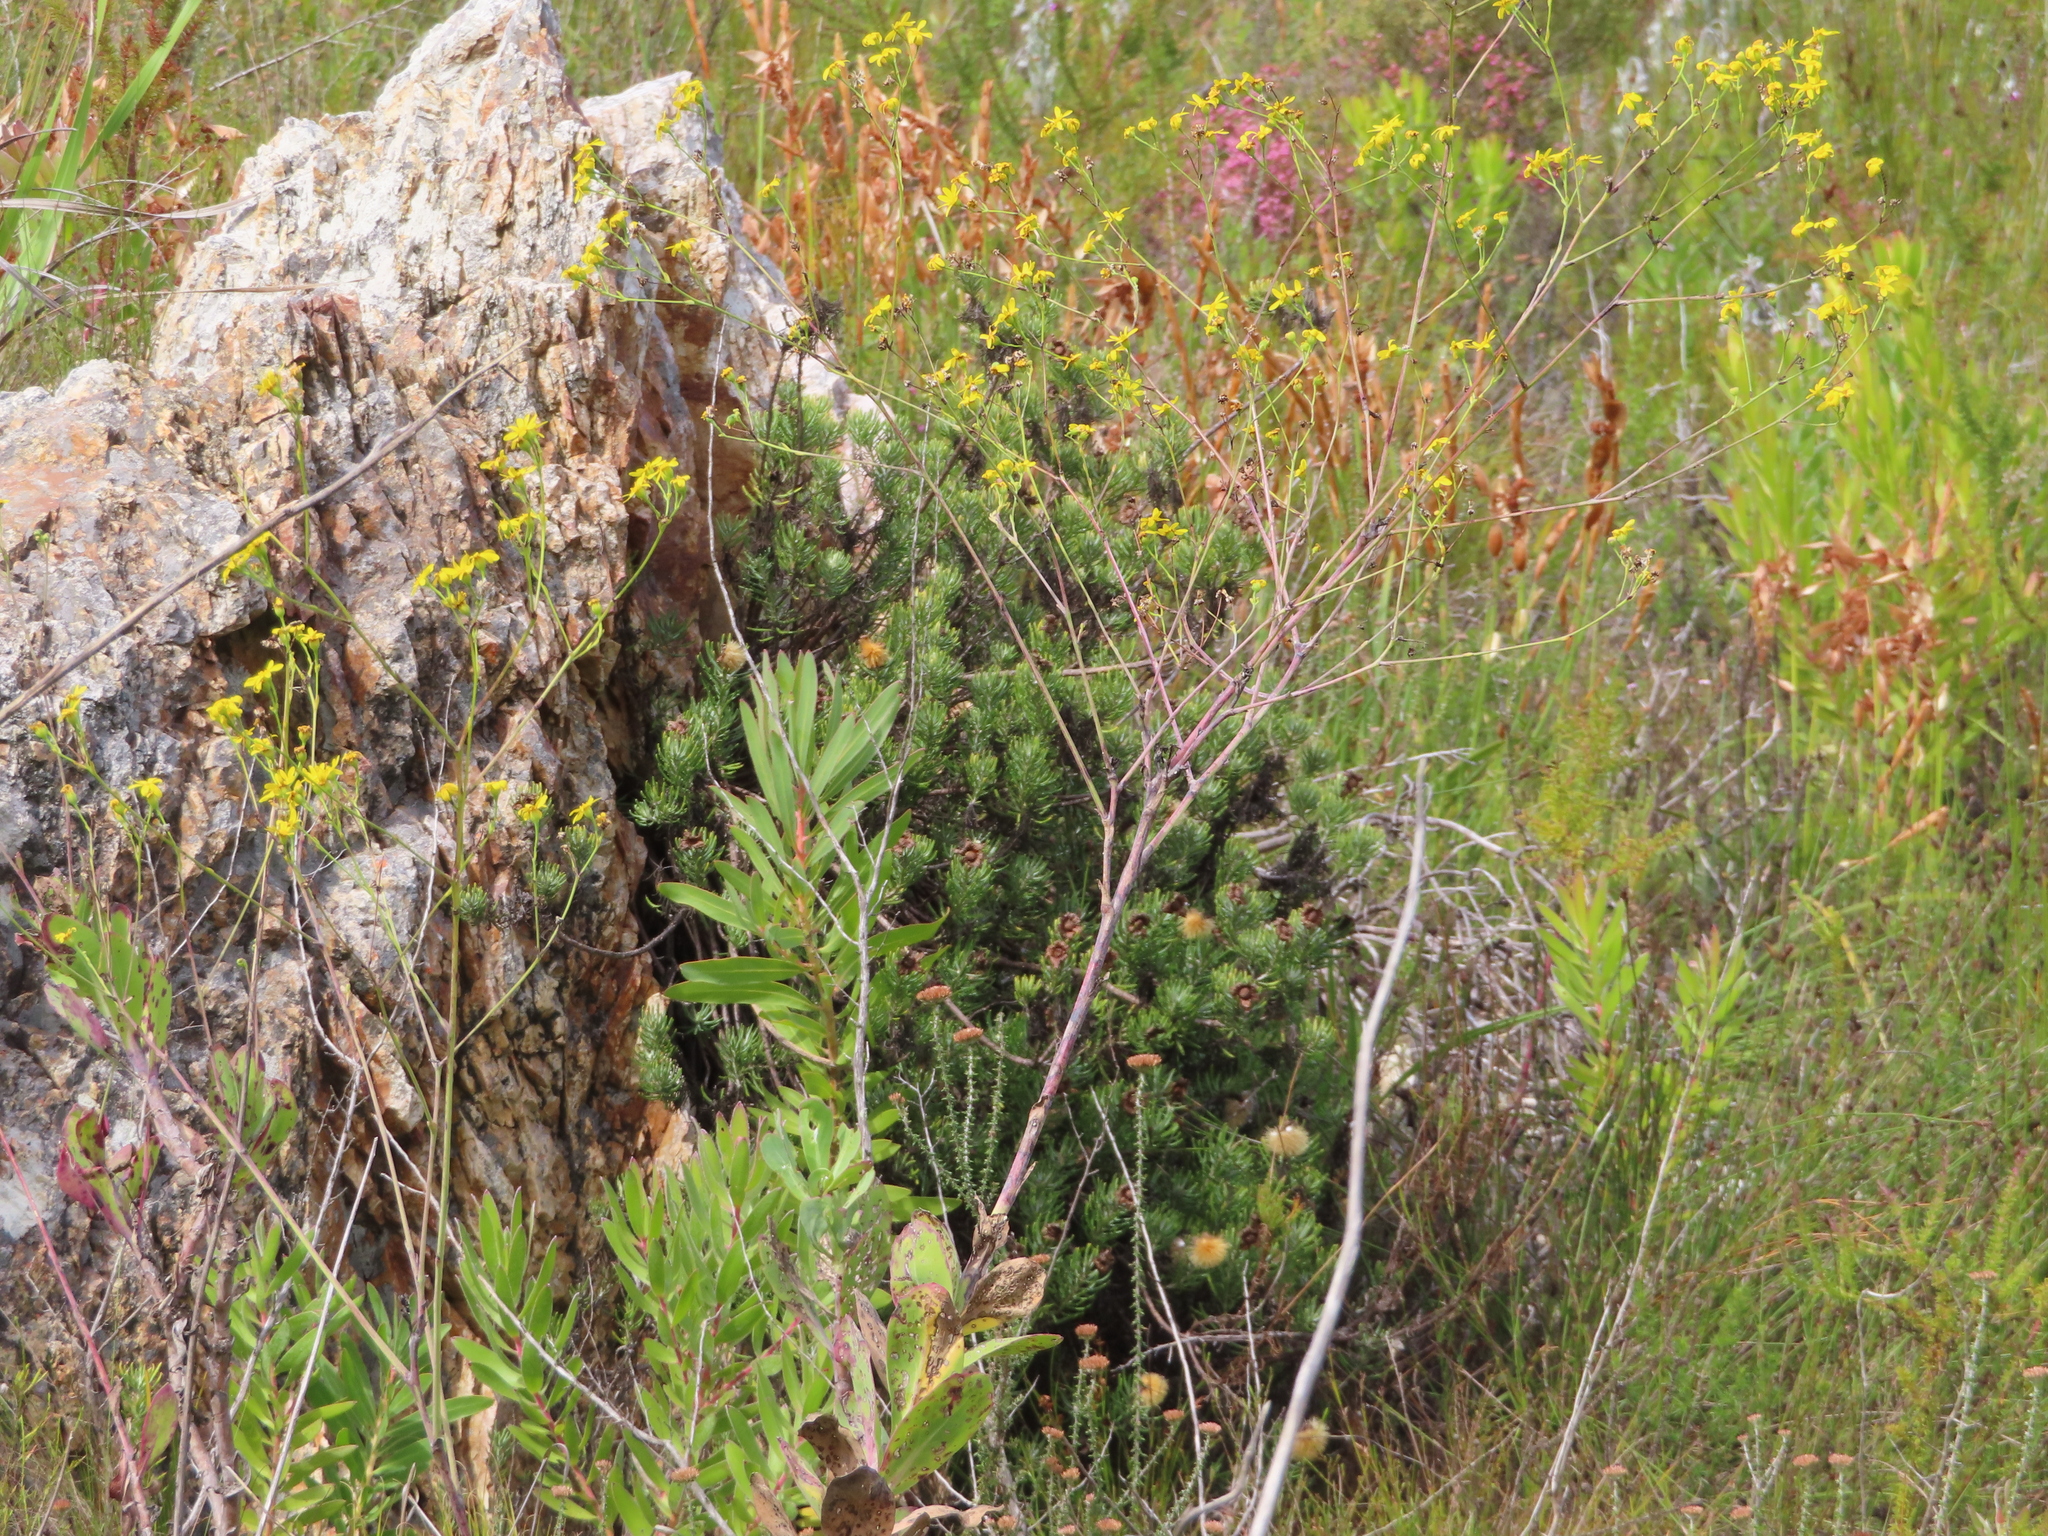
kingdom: Plantae
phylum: Tracheophyta
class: Magnoliopsida
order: Asterales
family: Asteraceae
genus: Heterolepis
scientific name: Heterolepis aliena
